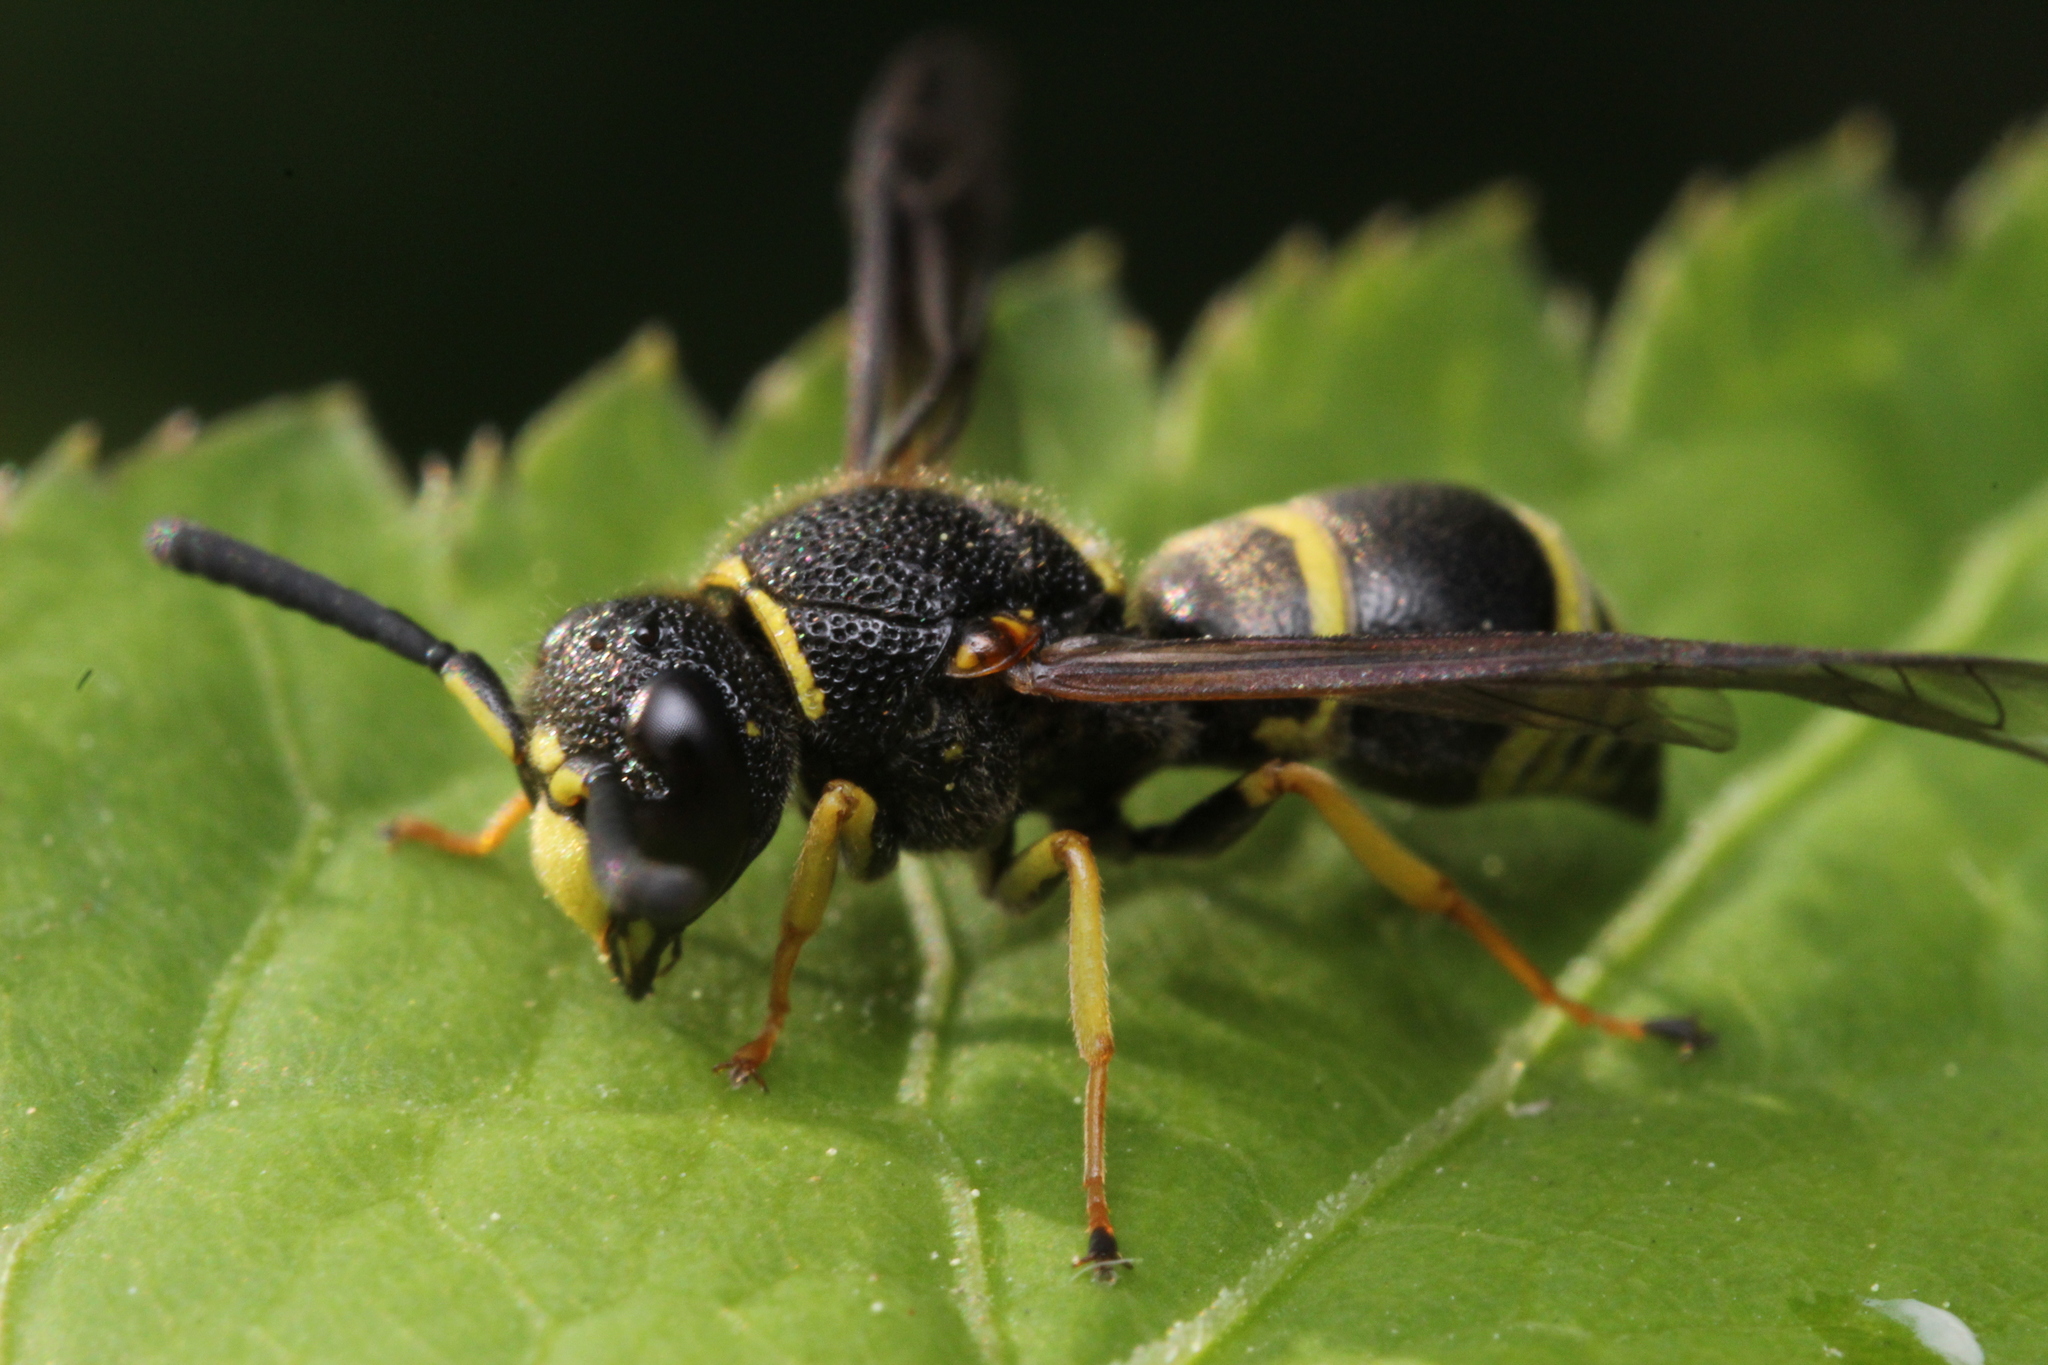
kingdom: Animalia
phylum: Arthropoda
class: Insecta
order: Hymenoptera
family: Eumenidae
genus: Euodynerus
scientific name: Euodynerus foraminatus
